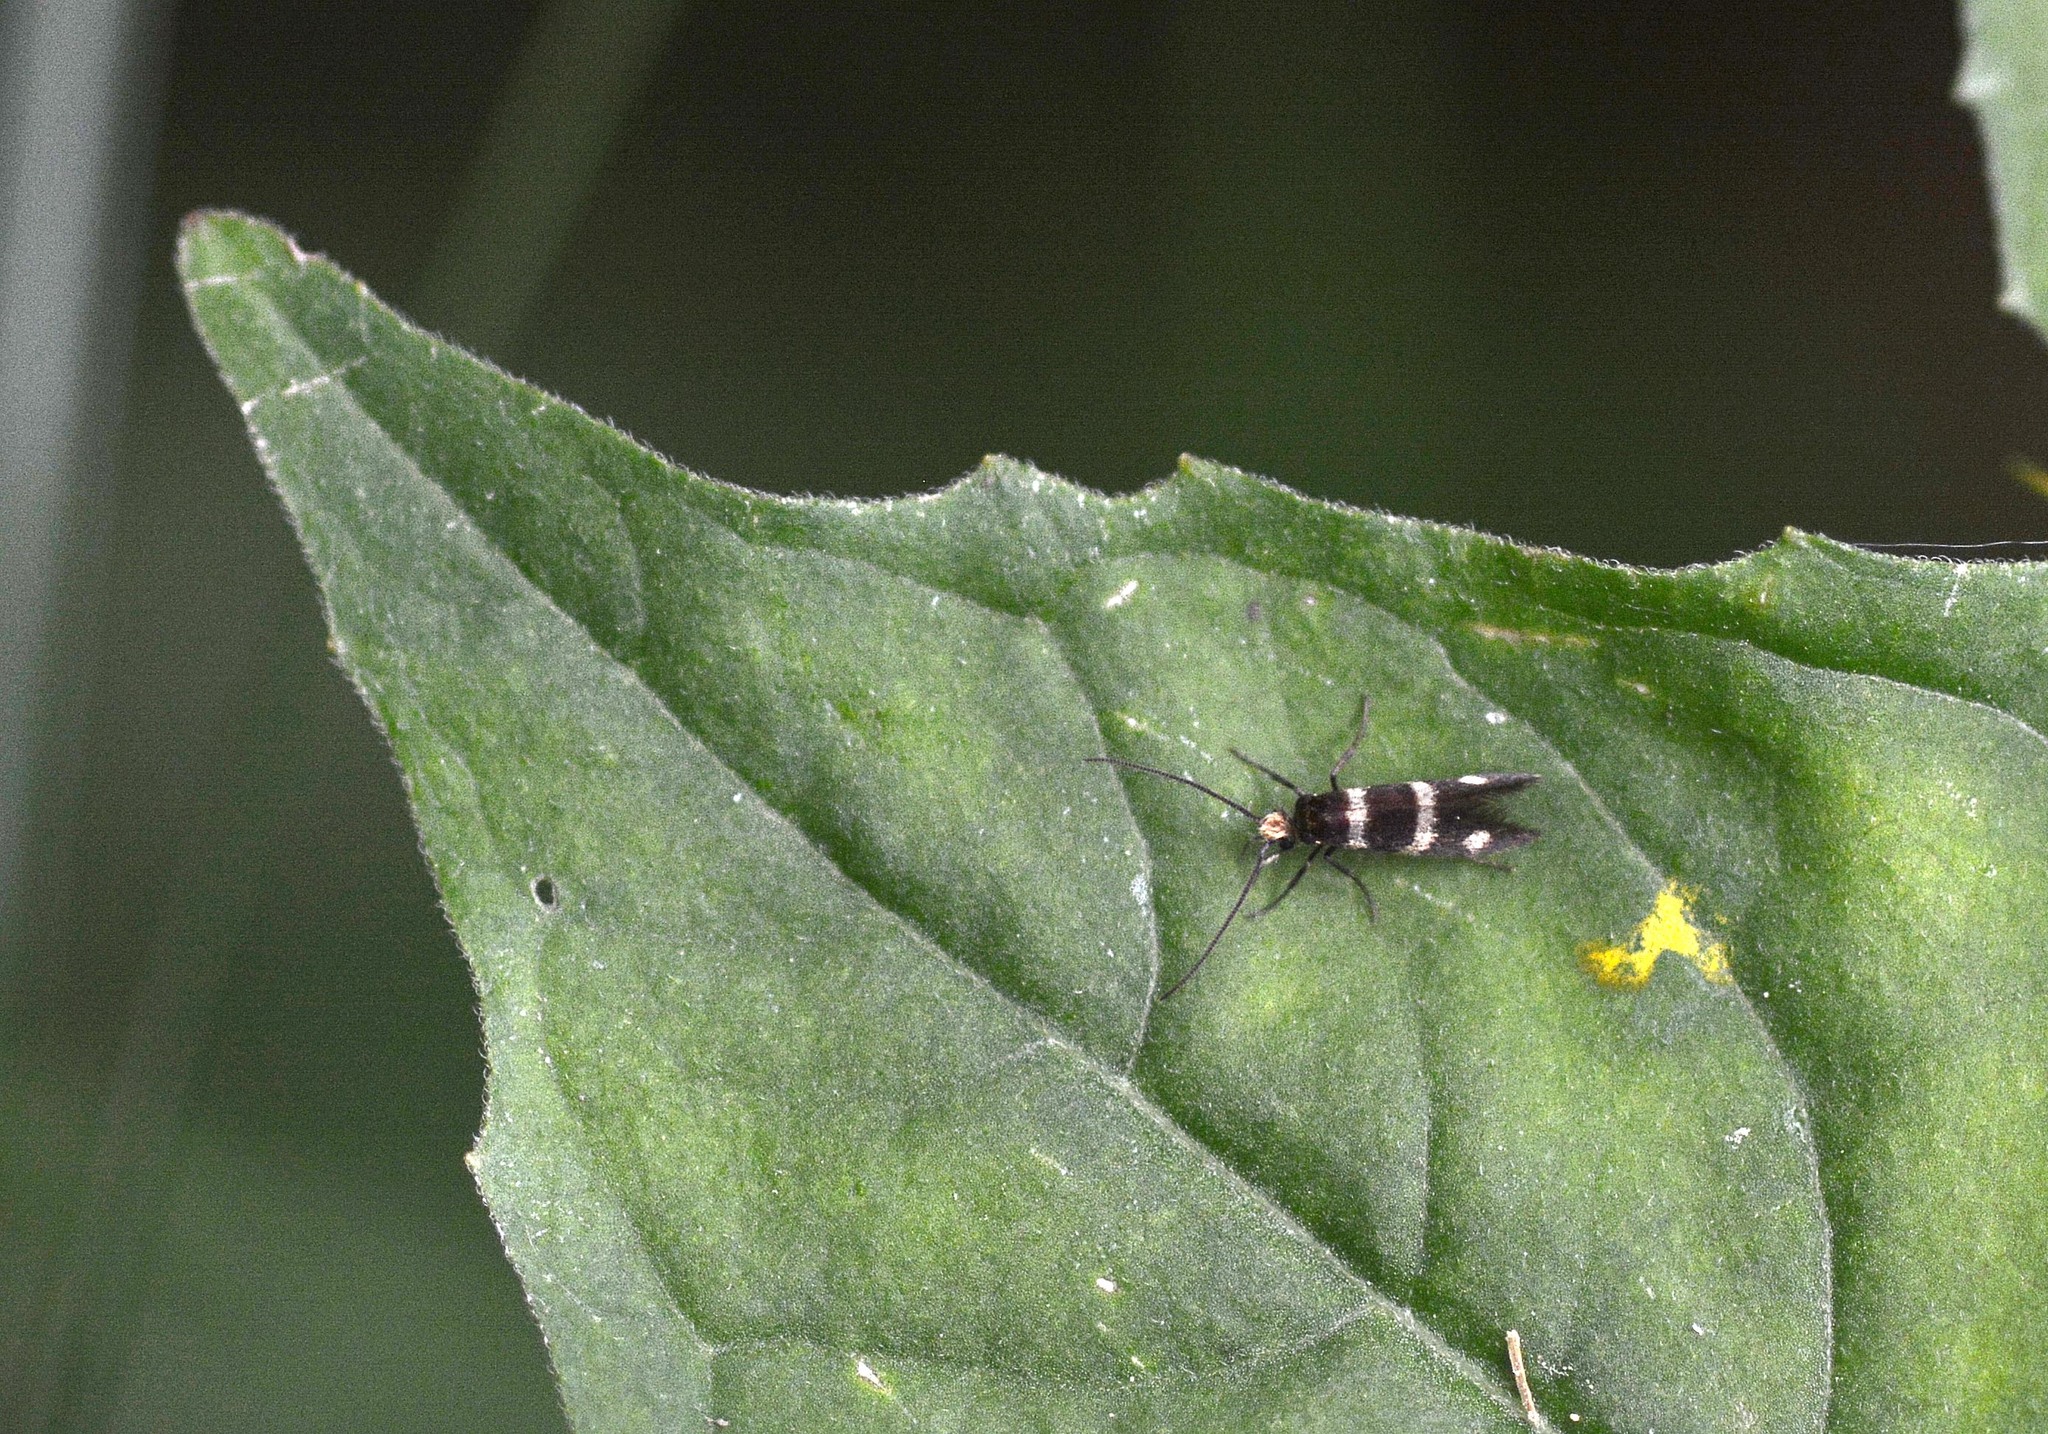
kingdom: Animalia
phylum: Arthropoda
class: Insecta
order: Lepidoptera
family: Micropterigidae
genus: Micropterix
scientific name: Micropterix aureatella
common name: Yellow-barred gold
